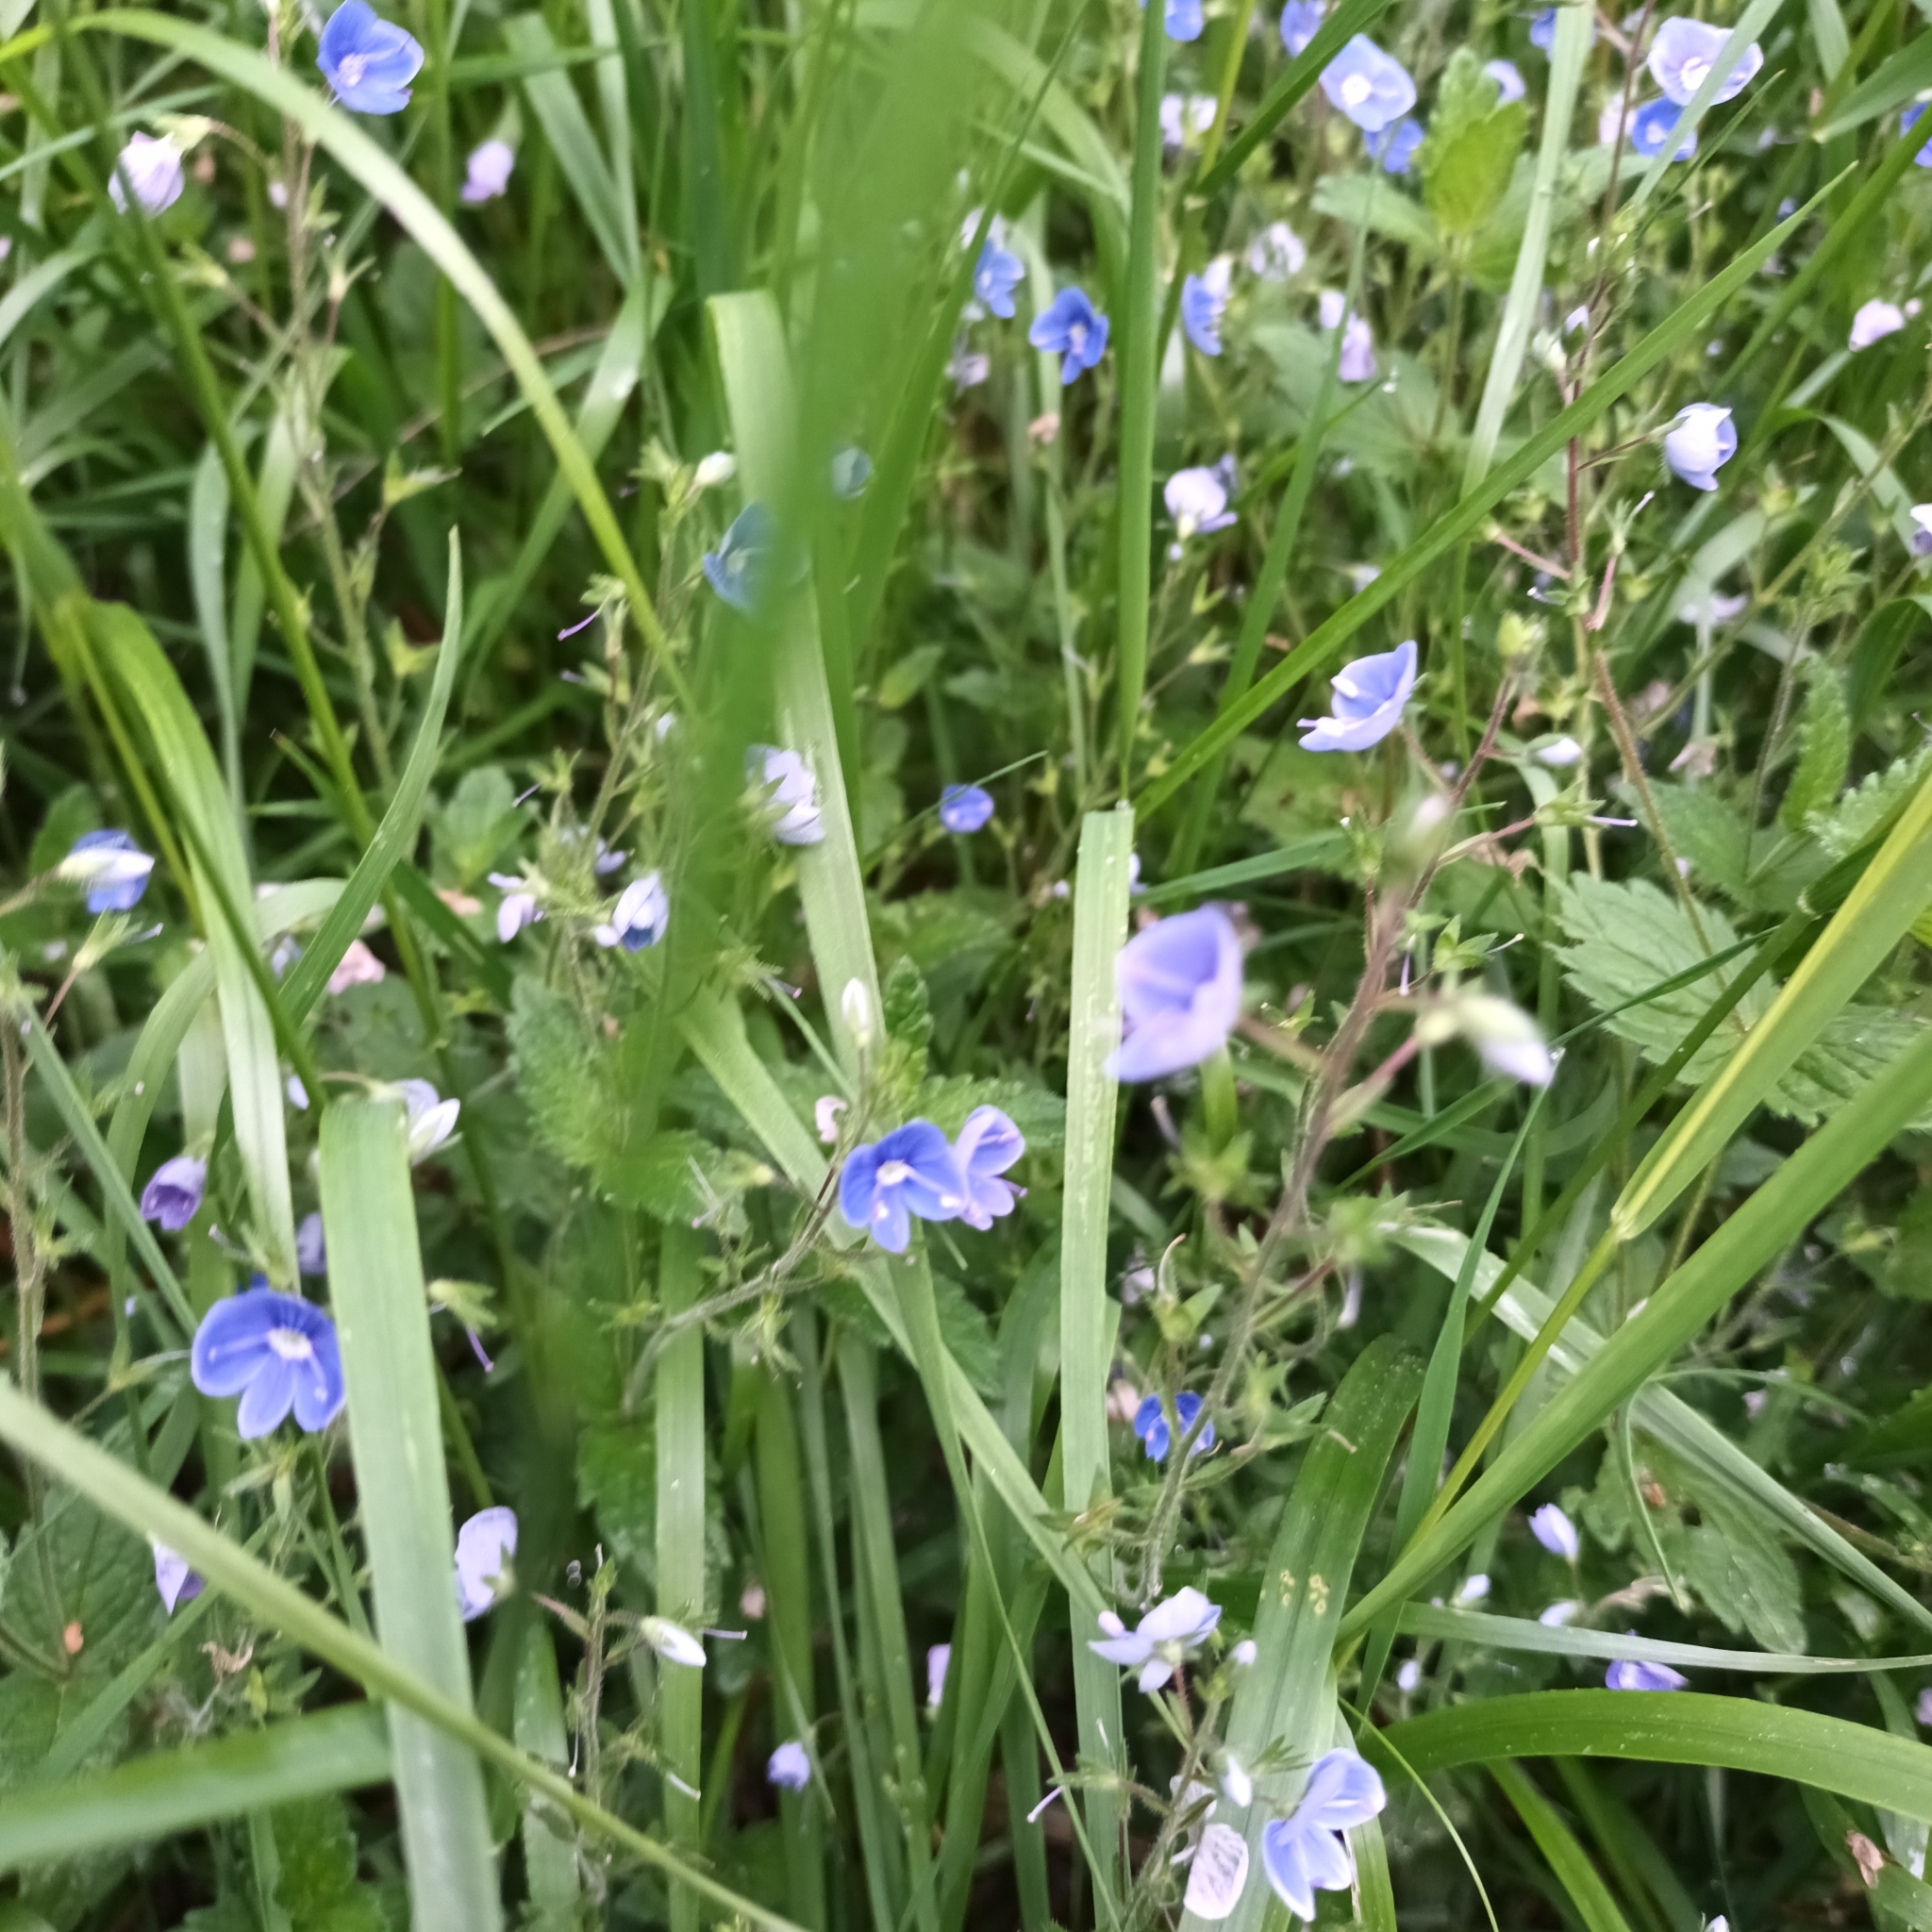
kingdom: Plantae
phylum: Tracheophyta
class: Magnoliopsida
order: Lamiales
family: Plantaginaceae
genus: Veronica
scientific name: Veronica chamaedrys
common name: Germander speedwell
